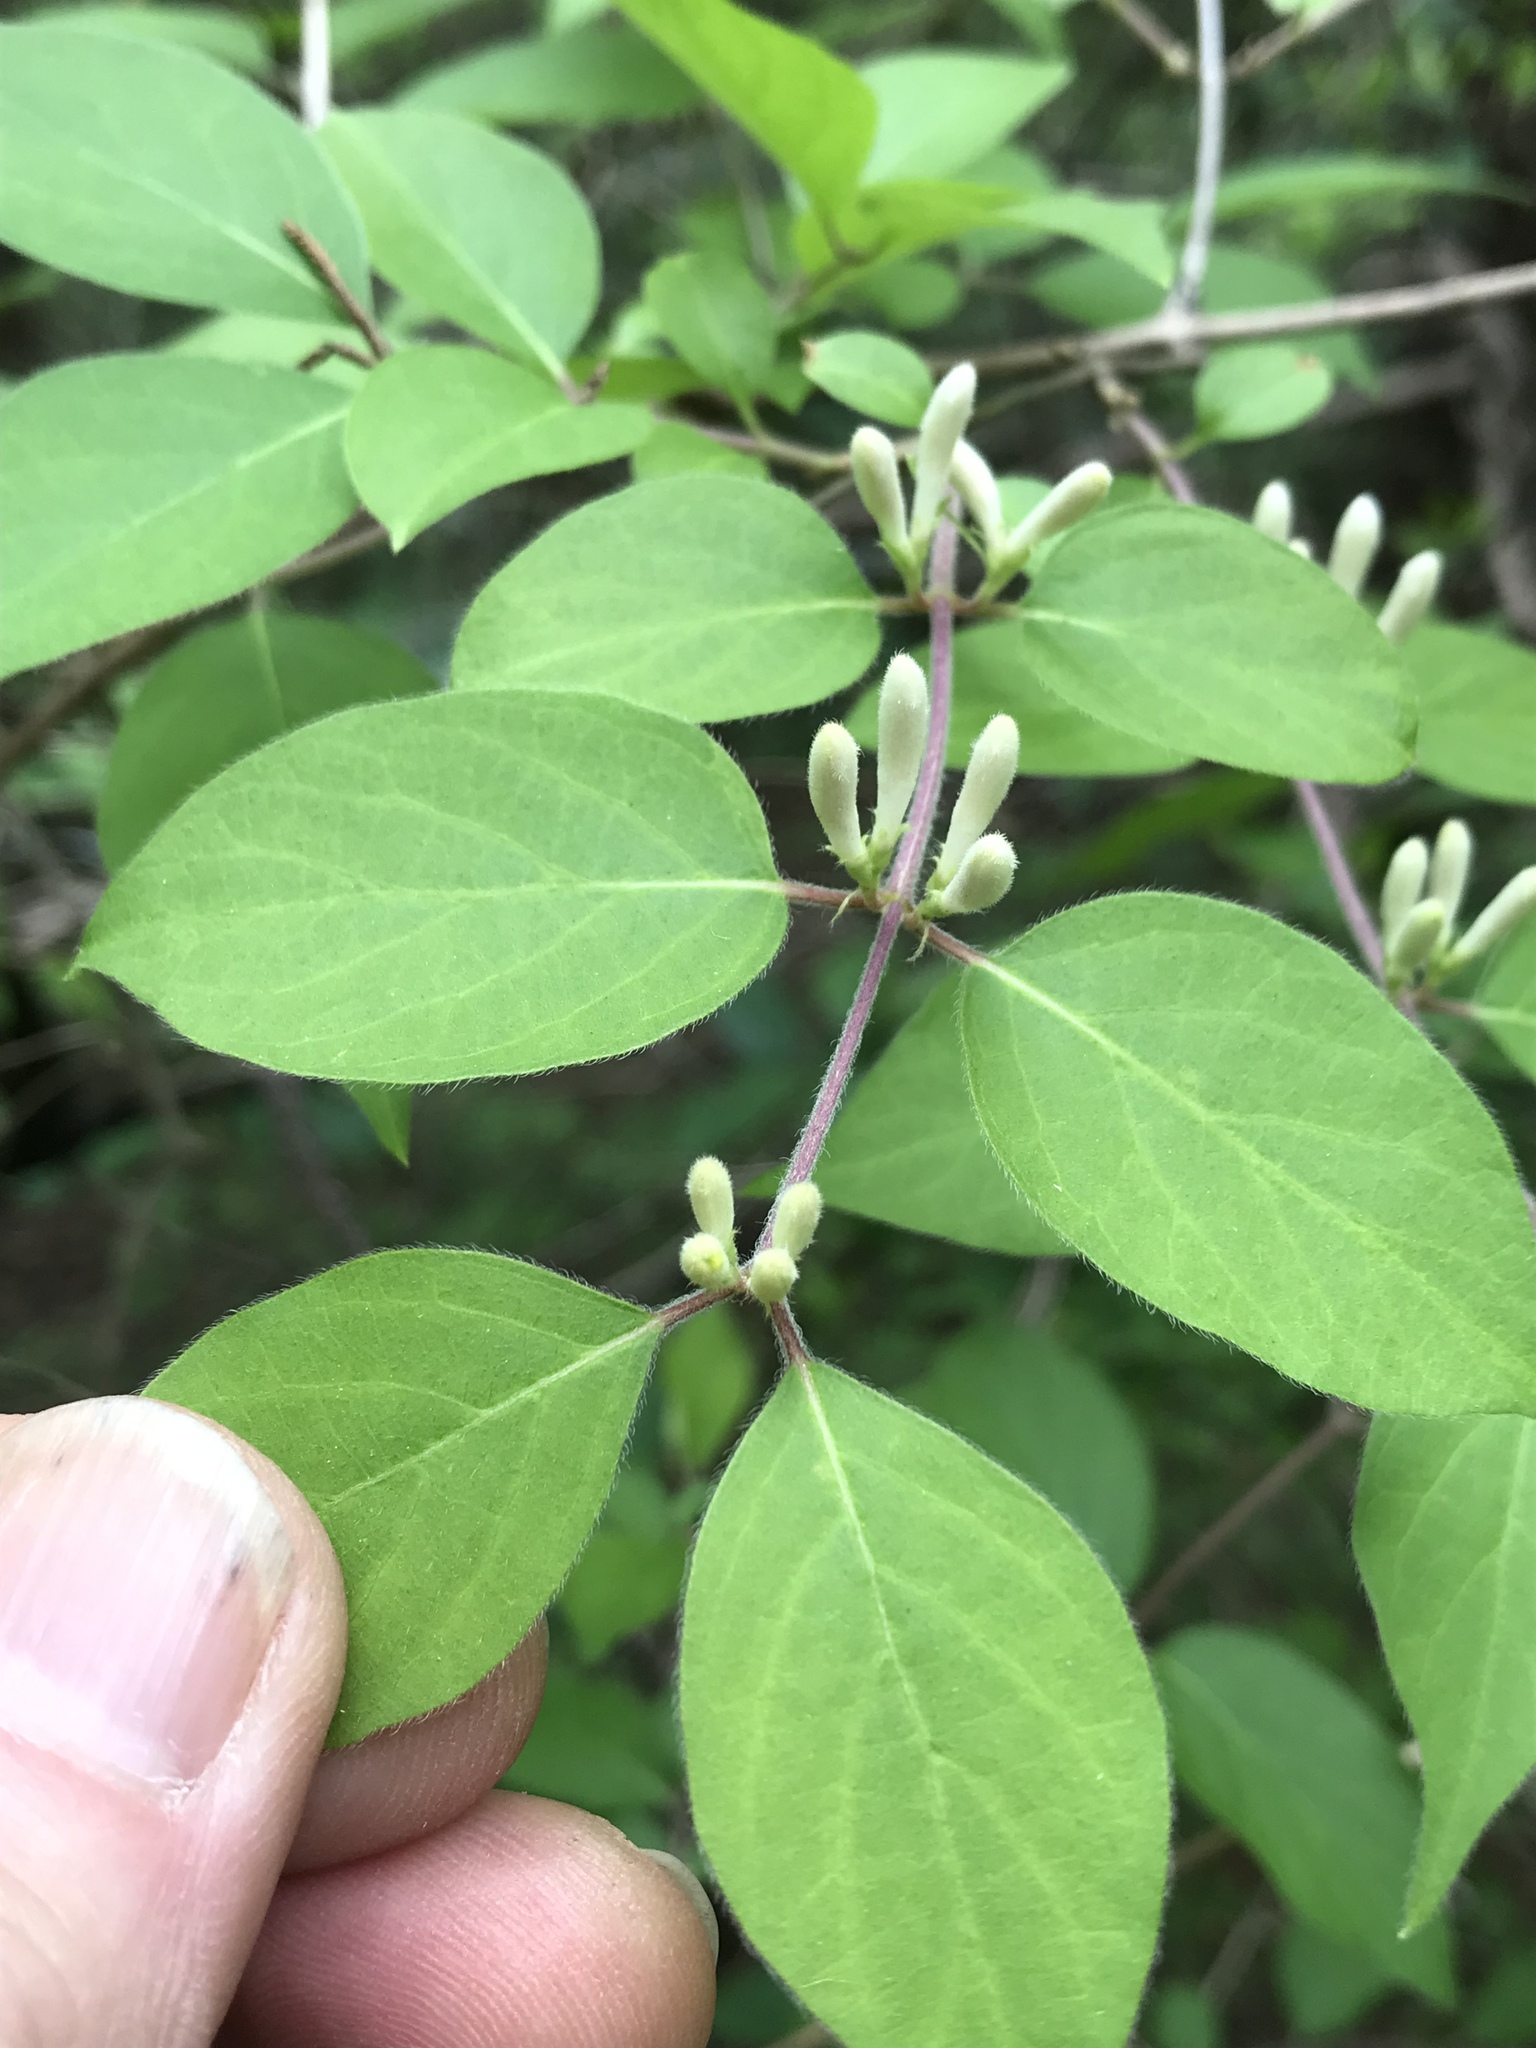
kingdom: Plantae
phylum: Tracheophyta
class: Magnoliopsida
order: Dipsacales
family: Caprifoliaceae
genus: Lonicera
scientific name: Lonicera maackii
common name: Amur honeysuckle
